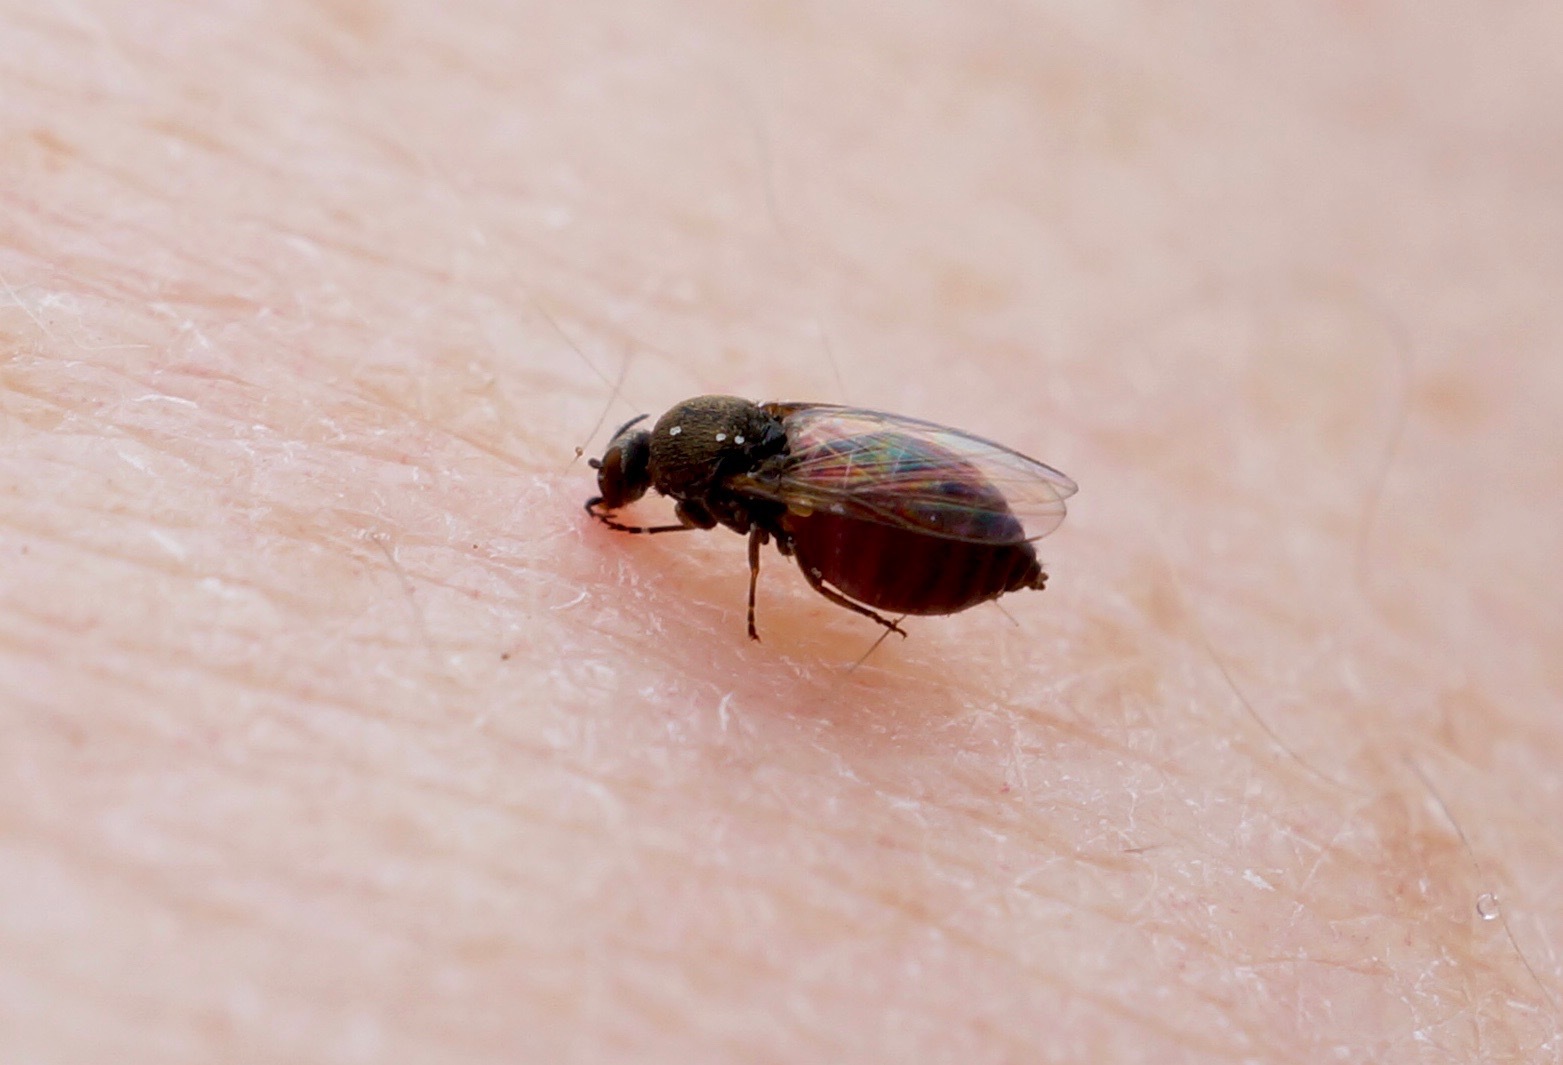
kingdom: Animalia
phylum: Arthropoda
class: Insecta
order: Diptera
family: Simuliidae
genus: Austrosimulium
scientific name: Austrosimulium australense
